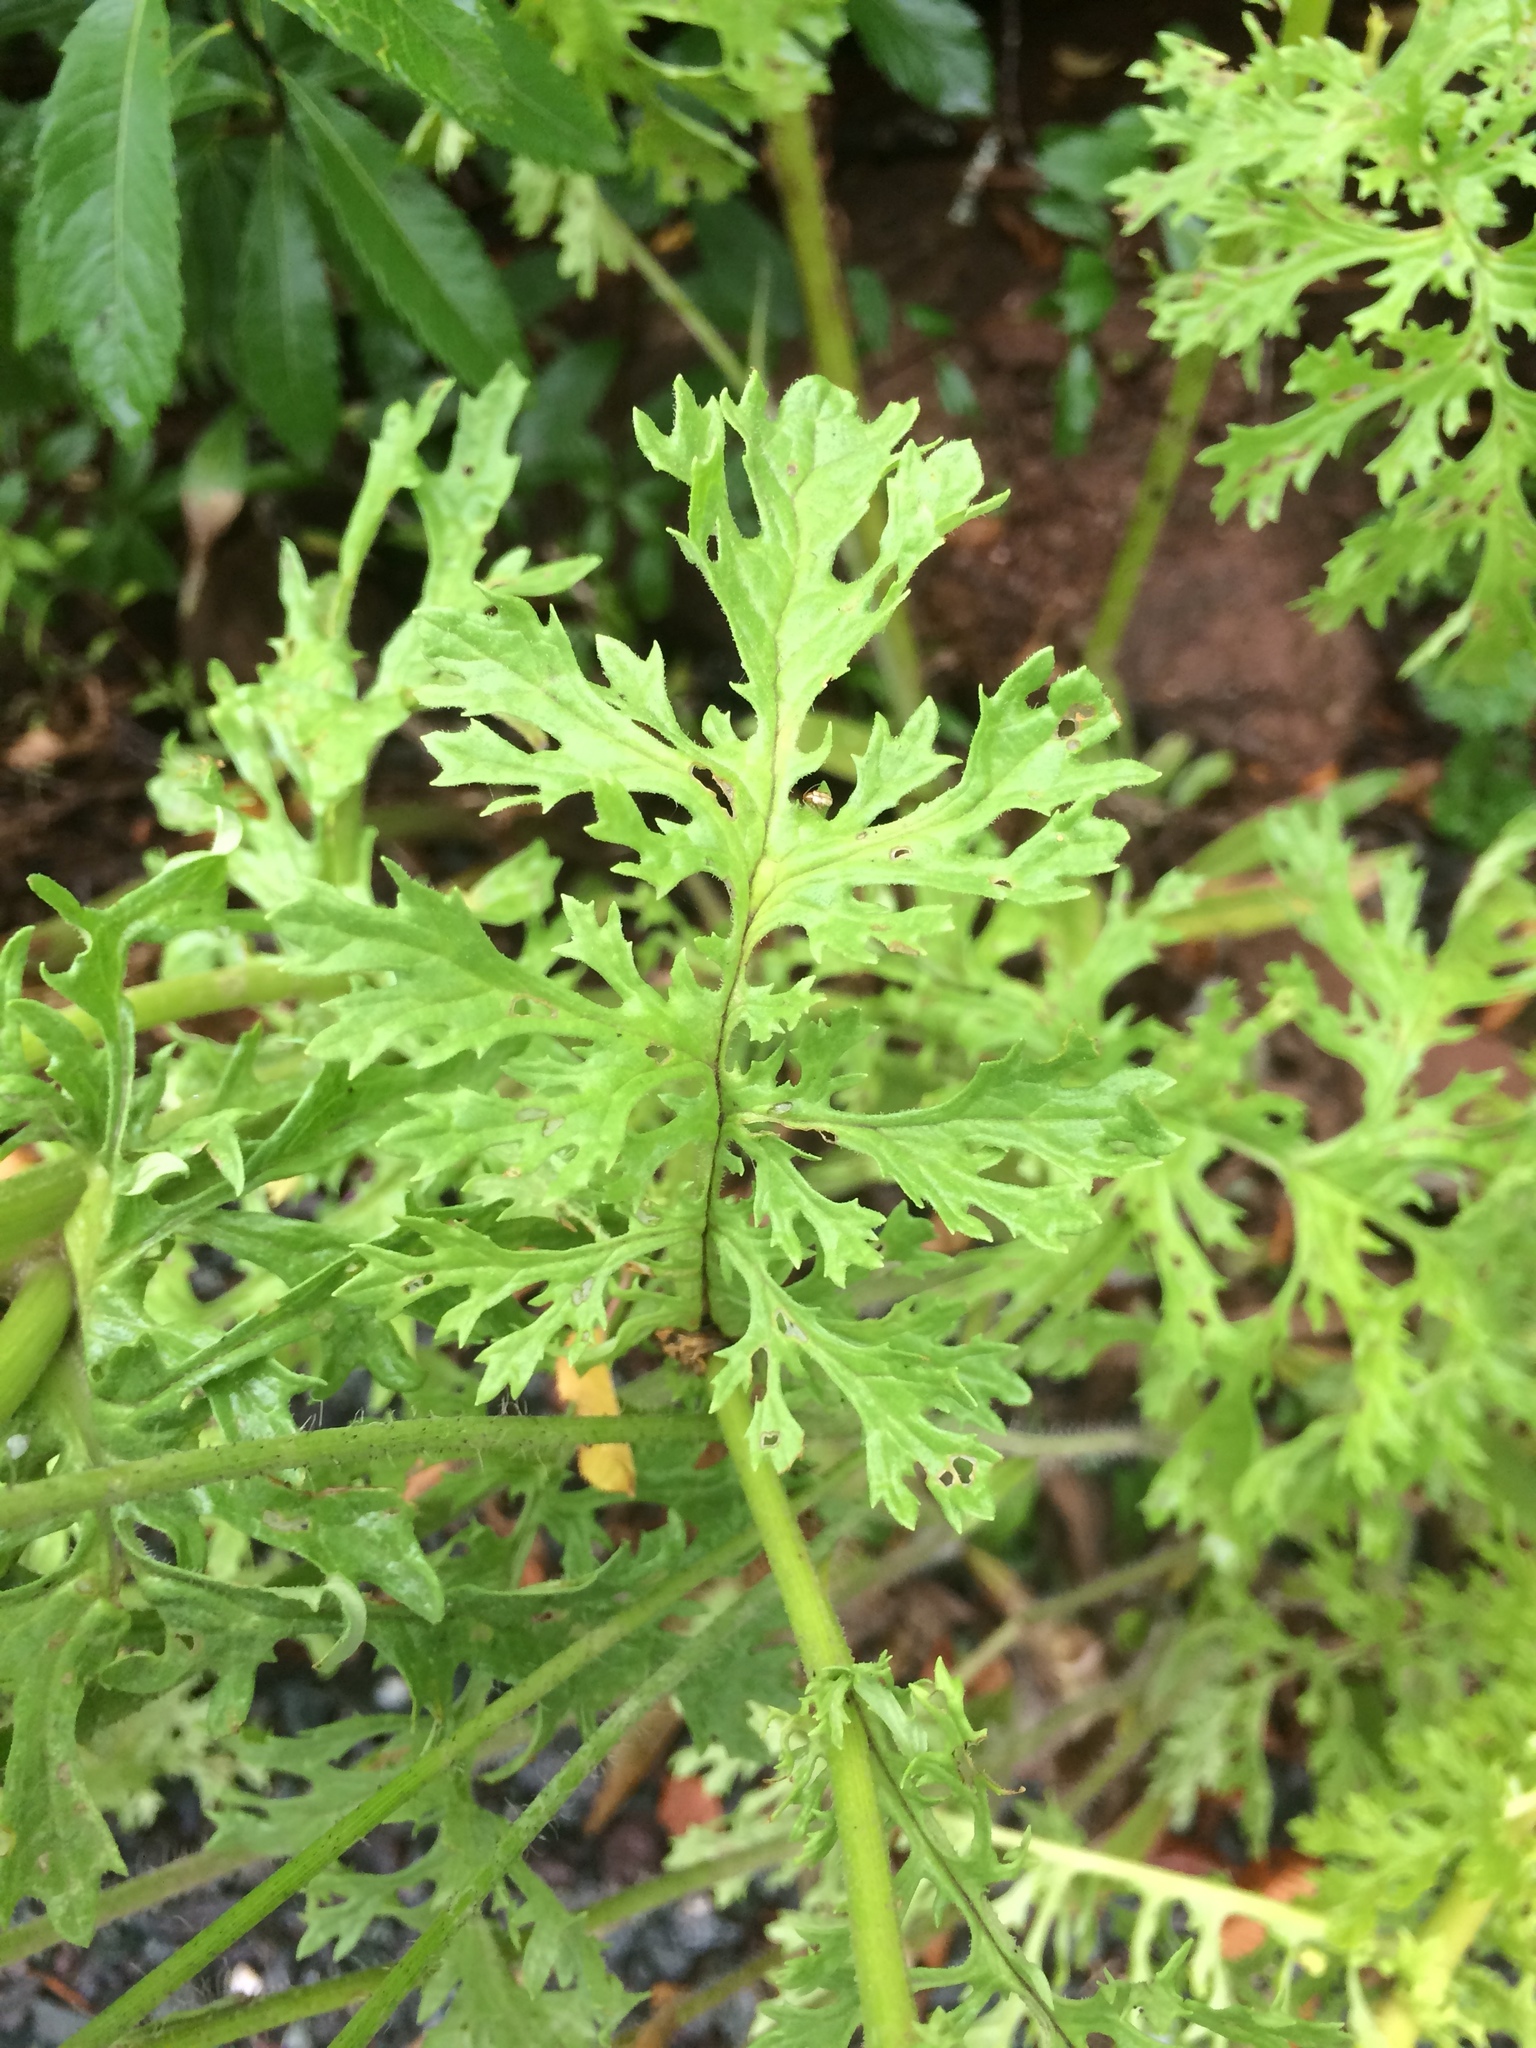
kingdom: Plantae
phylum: Tracheophyta
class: Magnoliopsida
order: Asterales
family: Asteraceae
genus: Jacobaea
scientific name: Jacobaea vulgaris
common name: Stinking willie
